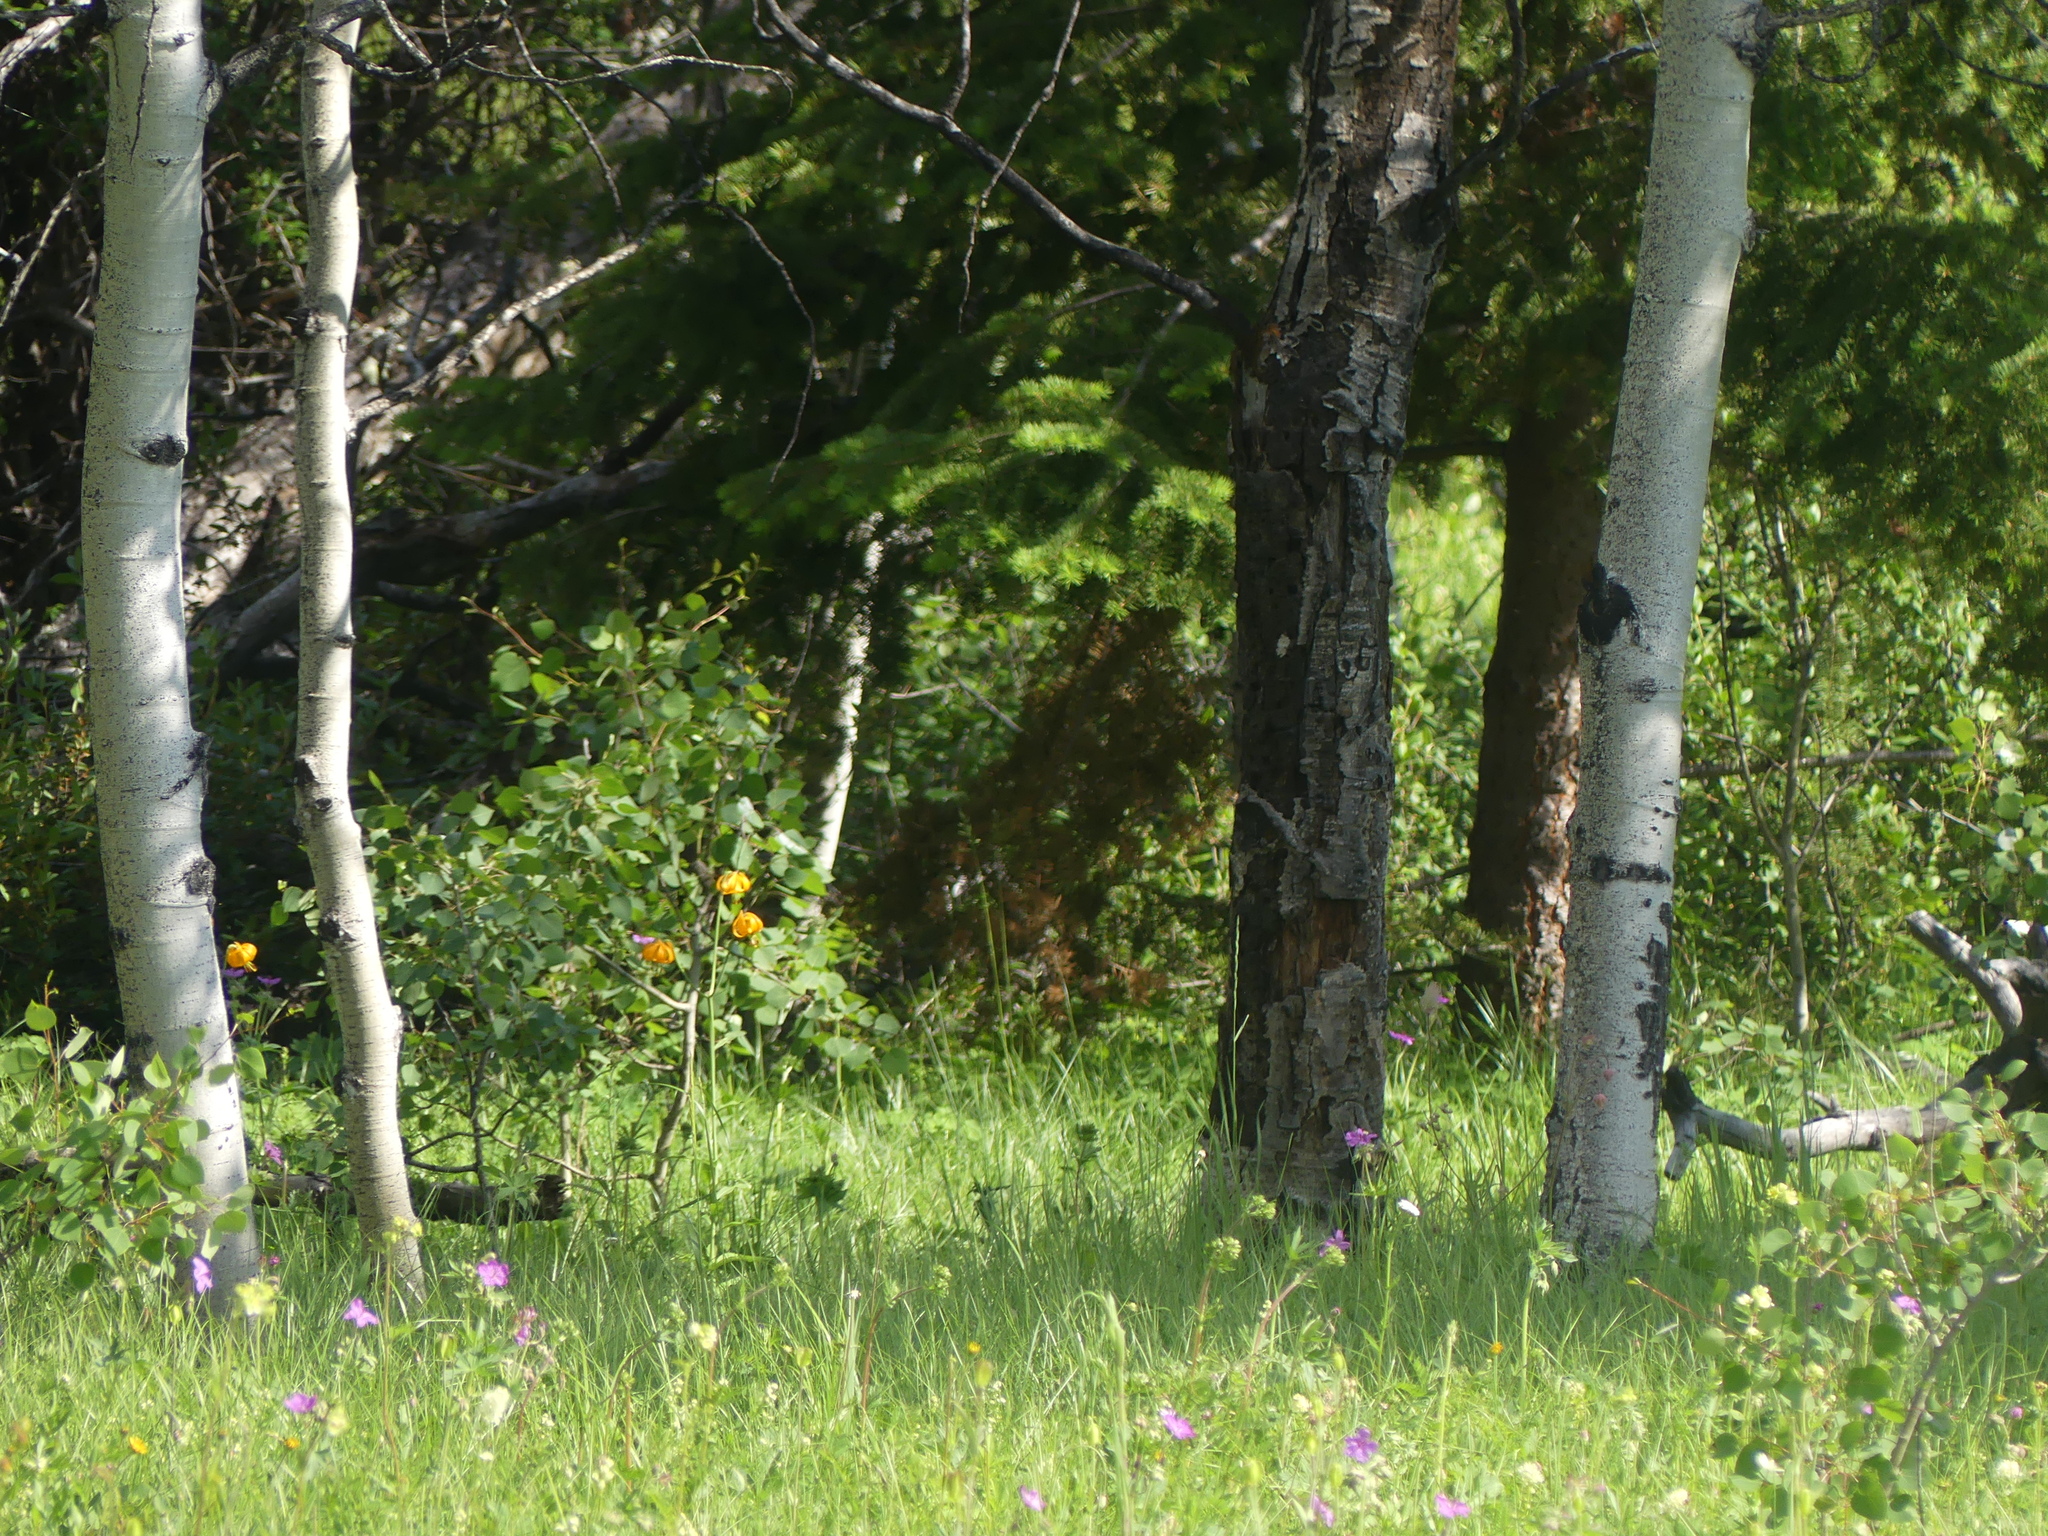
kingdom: Plantae
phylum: Tracheophyta
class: Liliopsida
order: Liliales
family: Liliaceae
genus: Lilium
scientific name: Lilium columbianum
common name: Columbia lily
